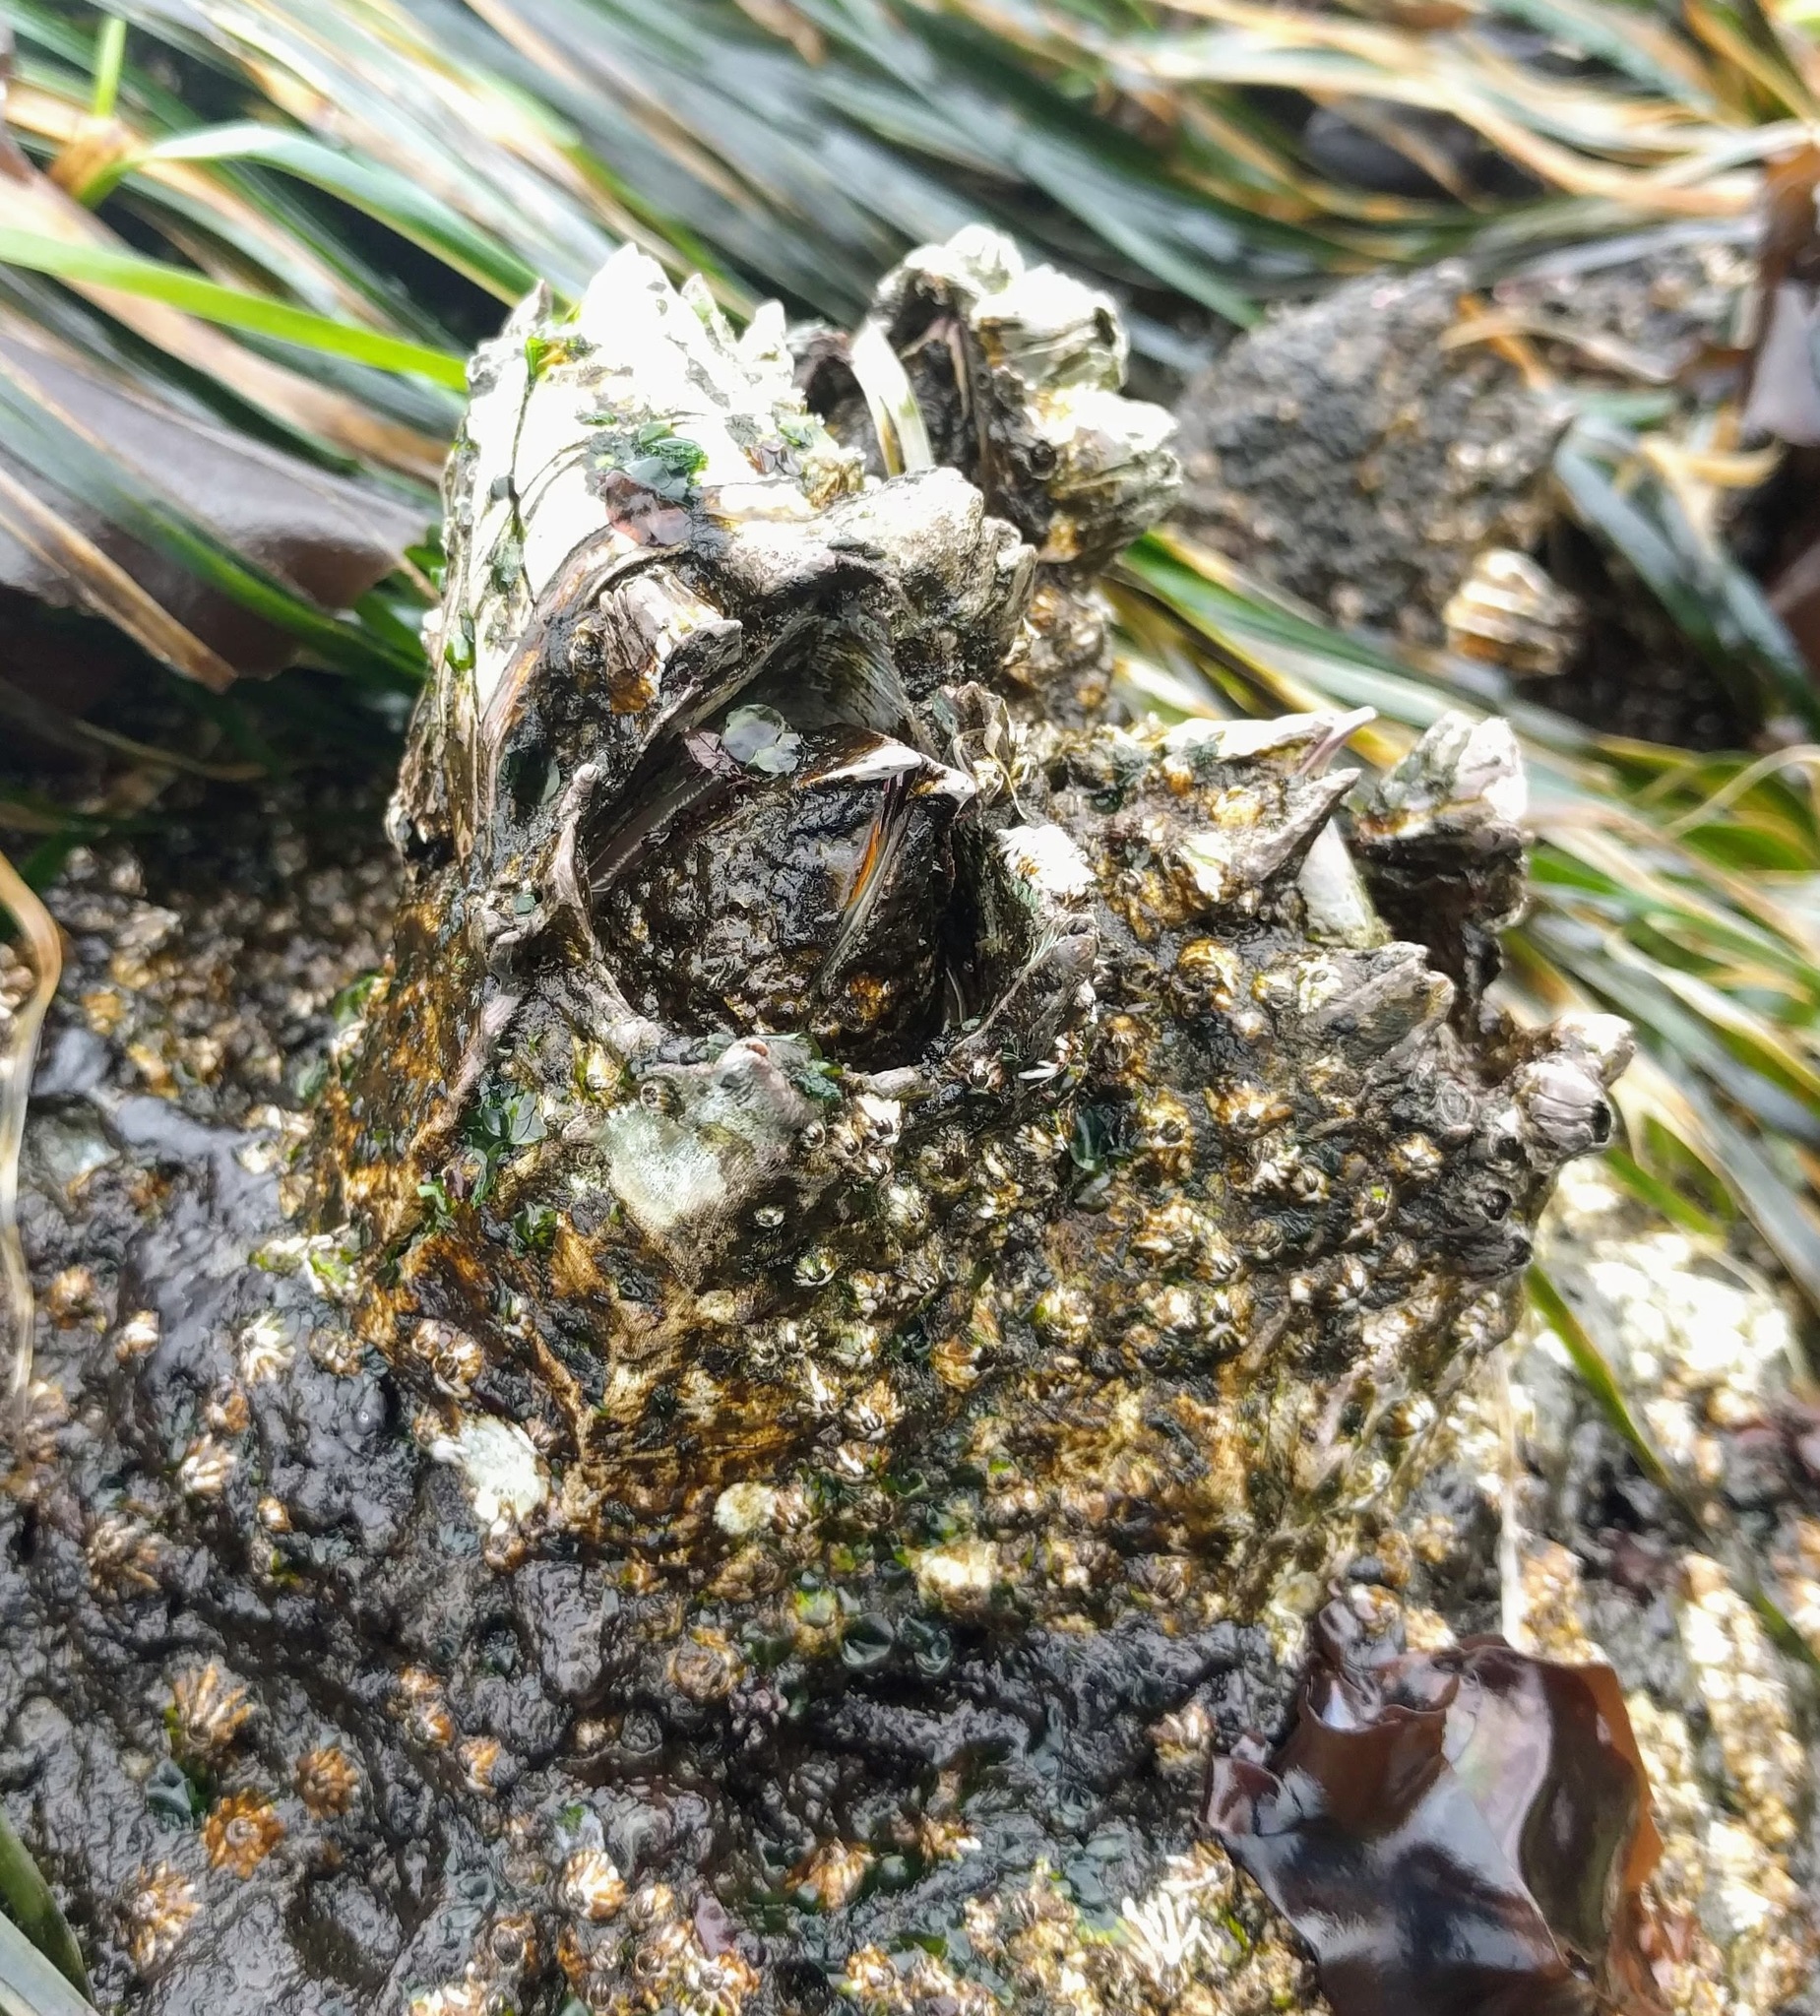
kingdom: Animalia
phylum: Arthropoda
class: Maxillopoda
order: Sessilia
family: Balanidae
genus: Balanus
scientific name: Balanus nubilus
